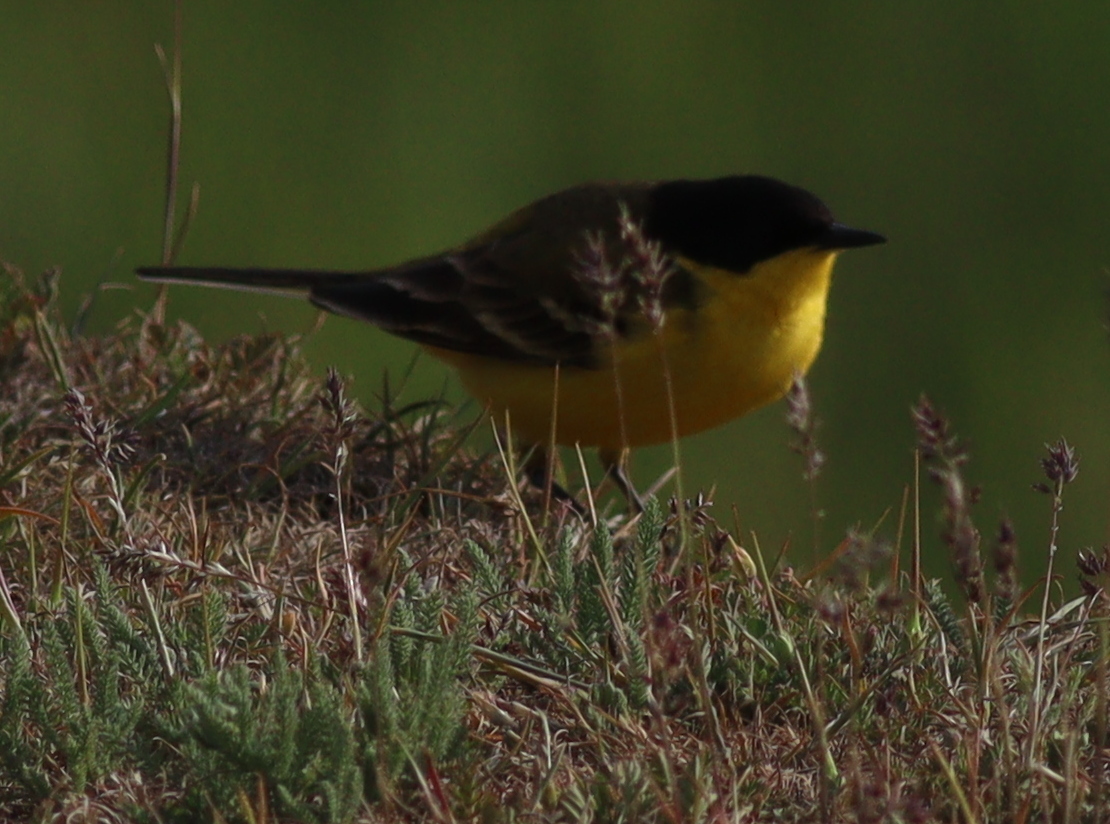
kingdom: Animalia
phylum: Chordata
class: Aves
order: Passeriformes
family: Motacillidae
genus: Motacilla
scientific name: Motacilla flava
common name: Western yellow wagtail
